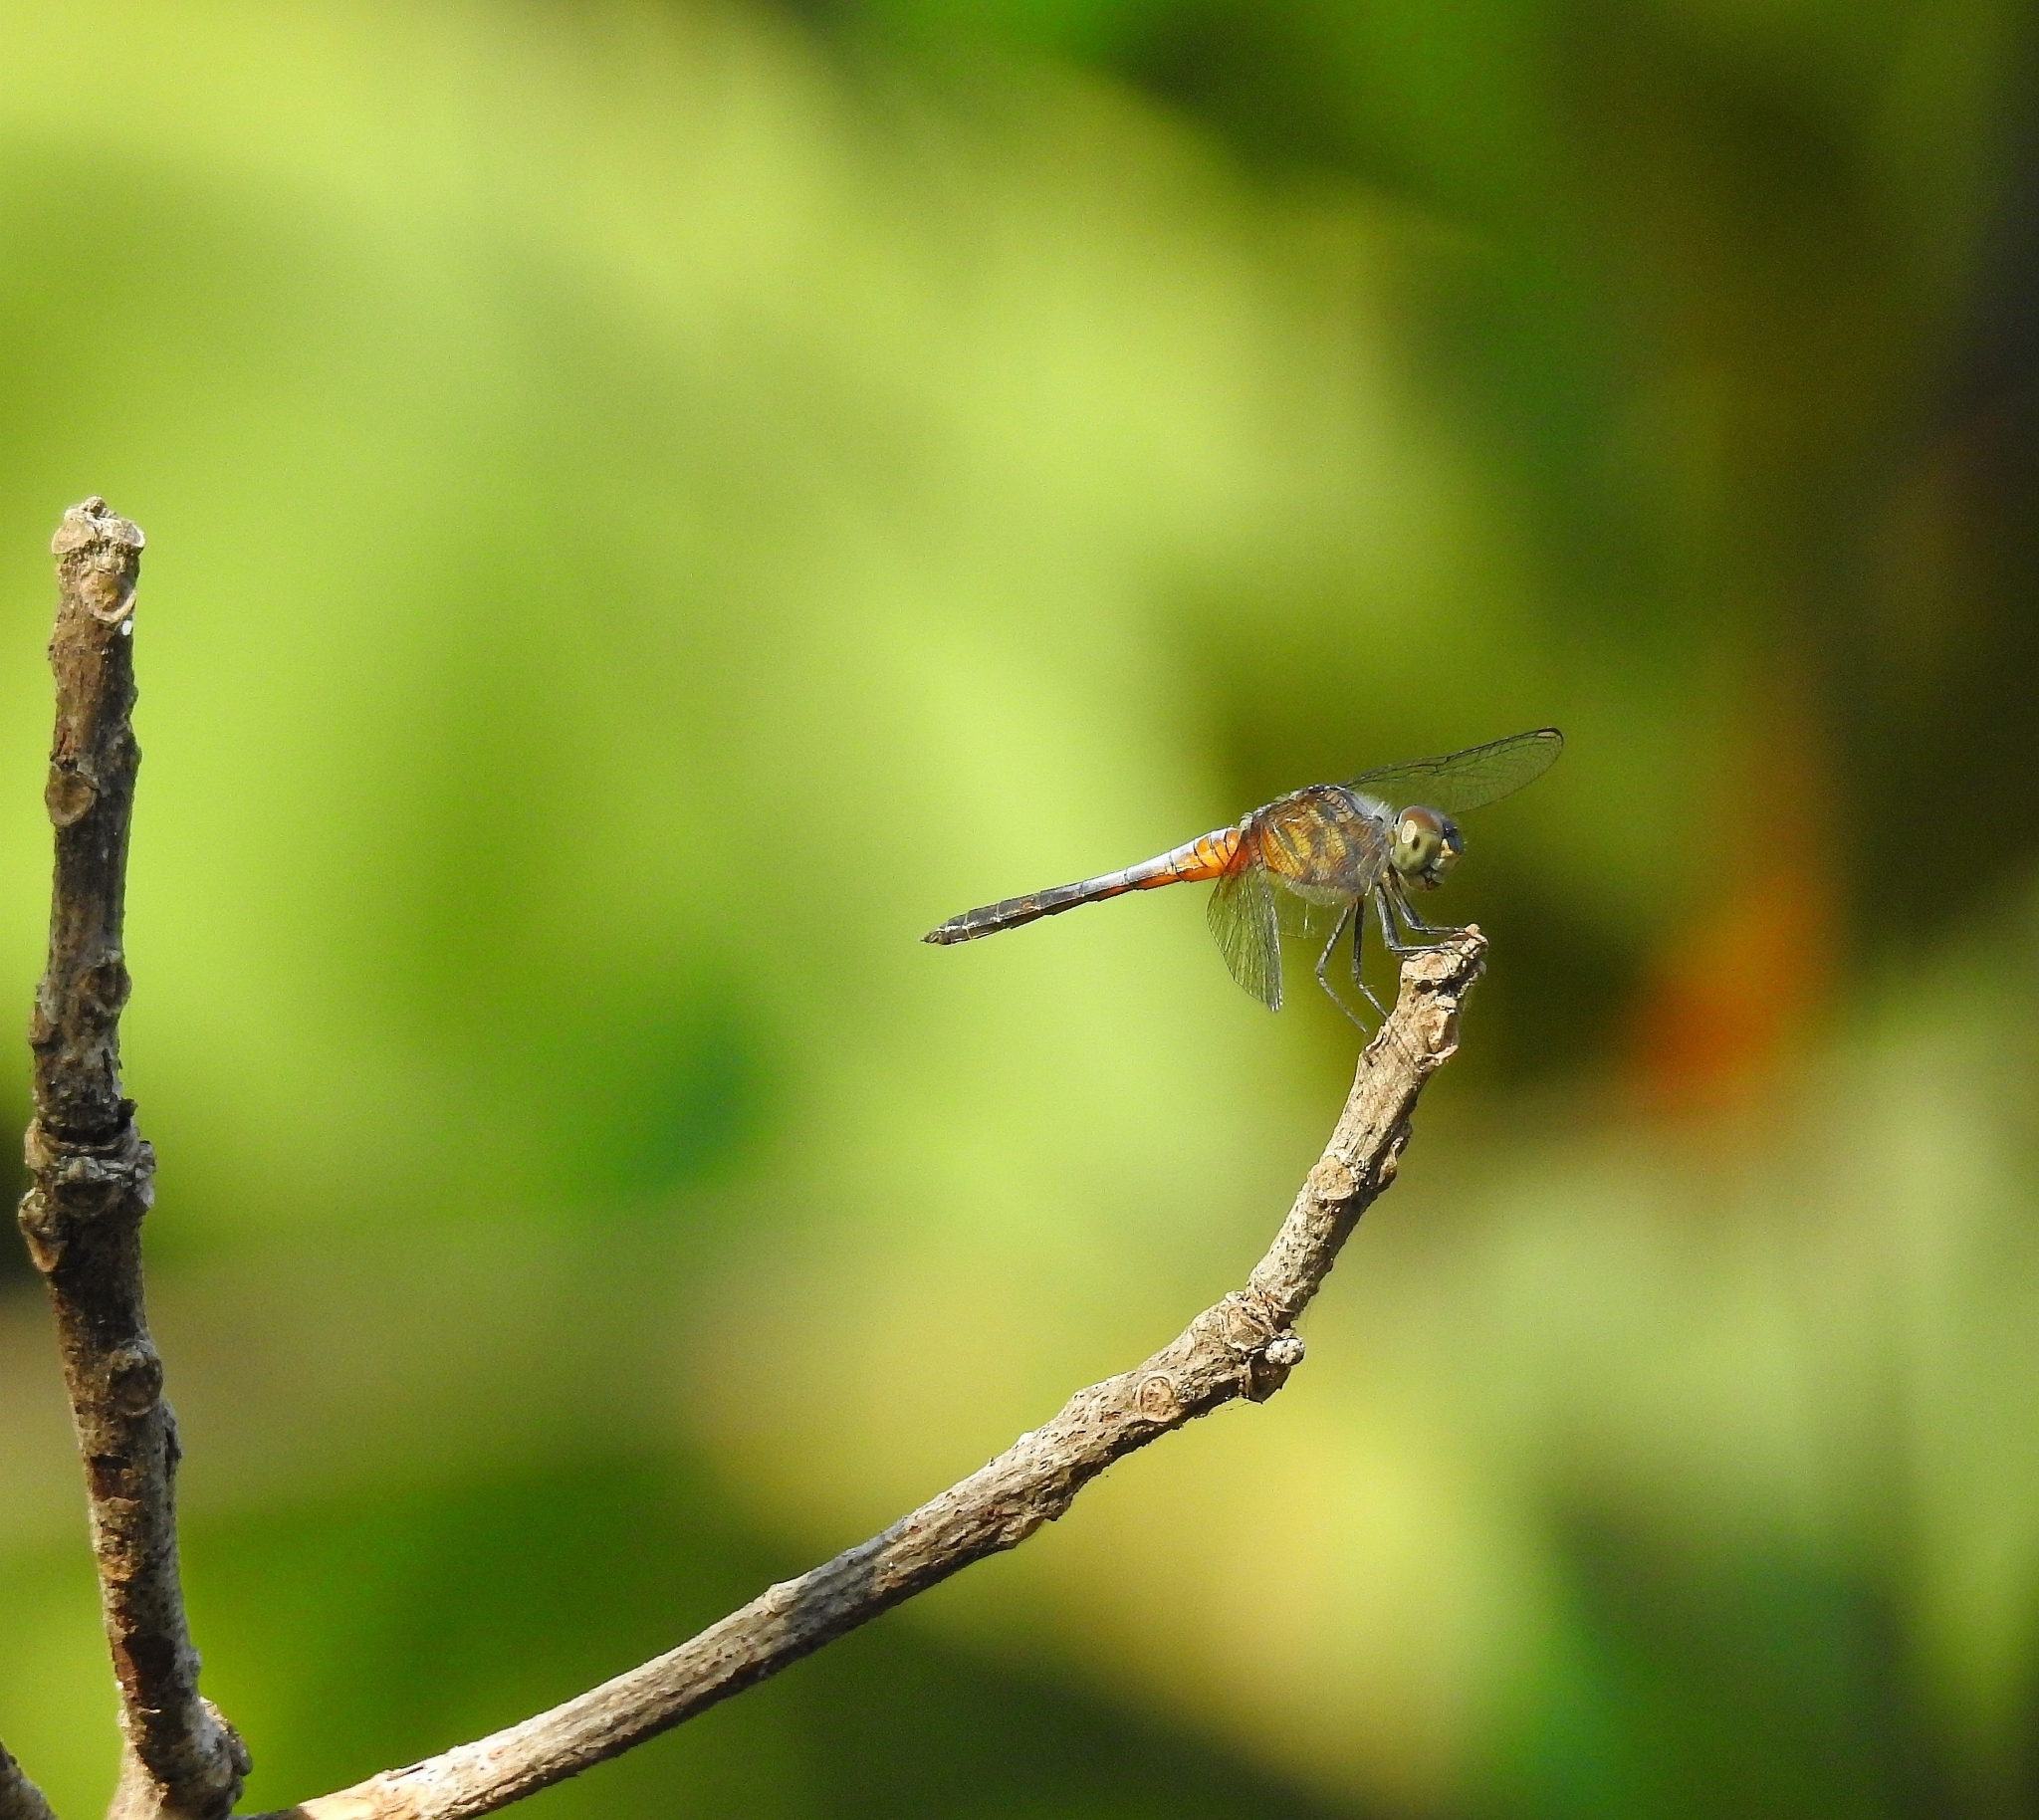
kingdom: Animalia
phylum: Arthropoda
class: Insecta
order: Odonata
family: Libellulidae
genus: Brachydiplax
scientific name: Brachydiplax chalybea
